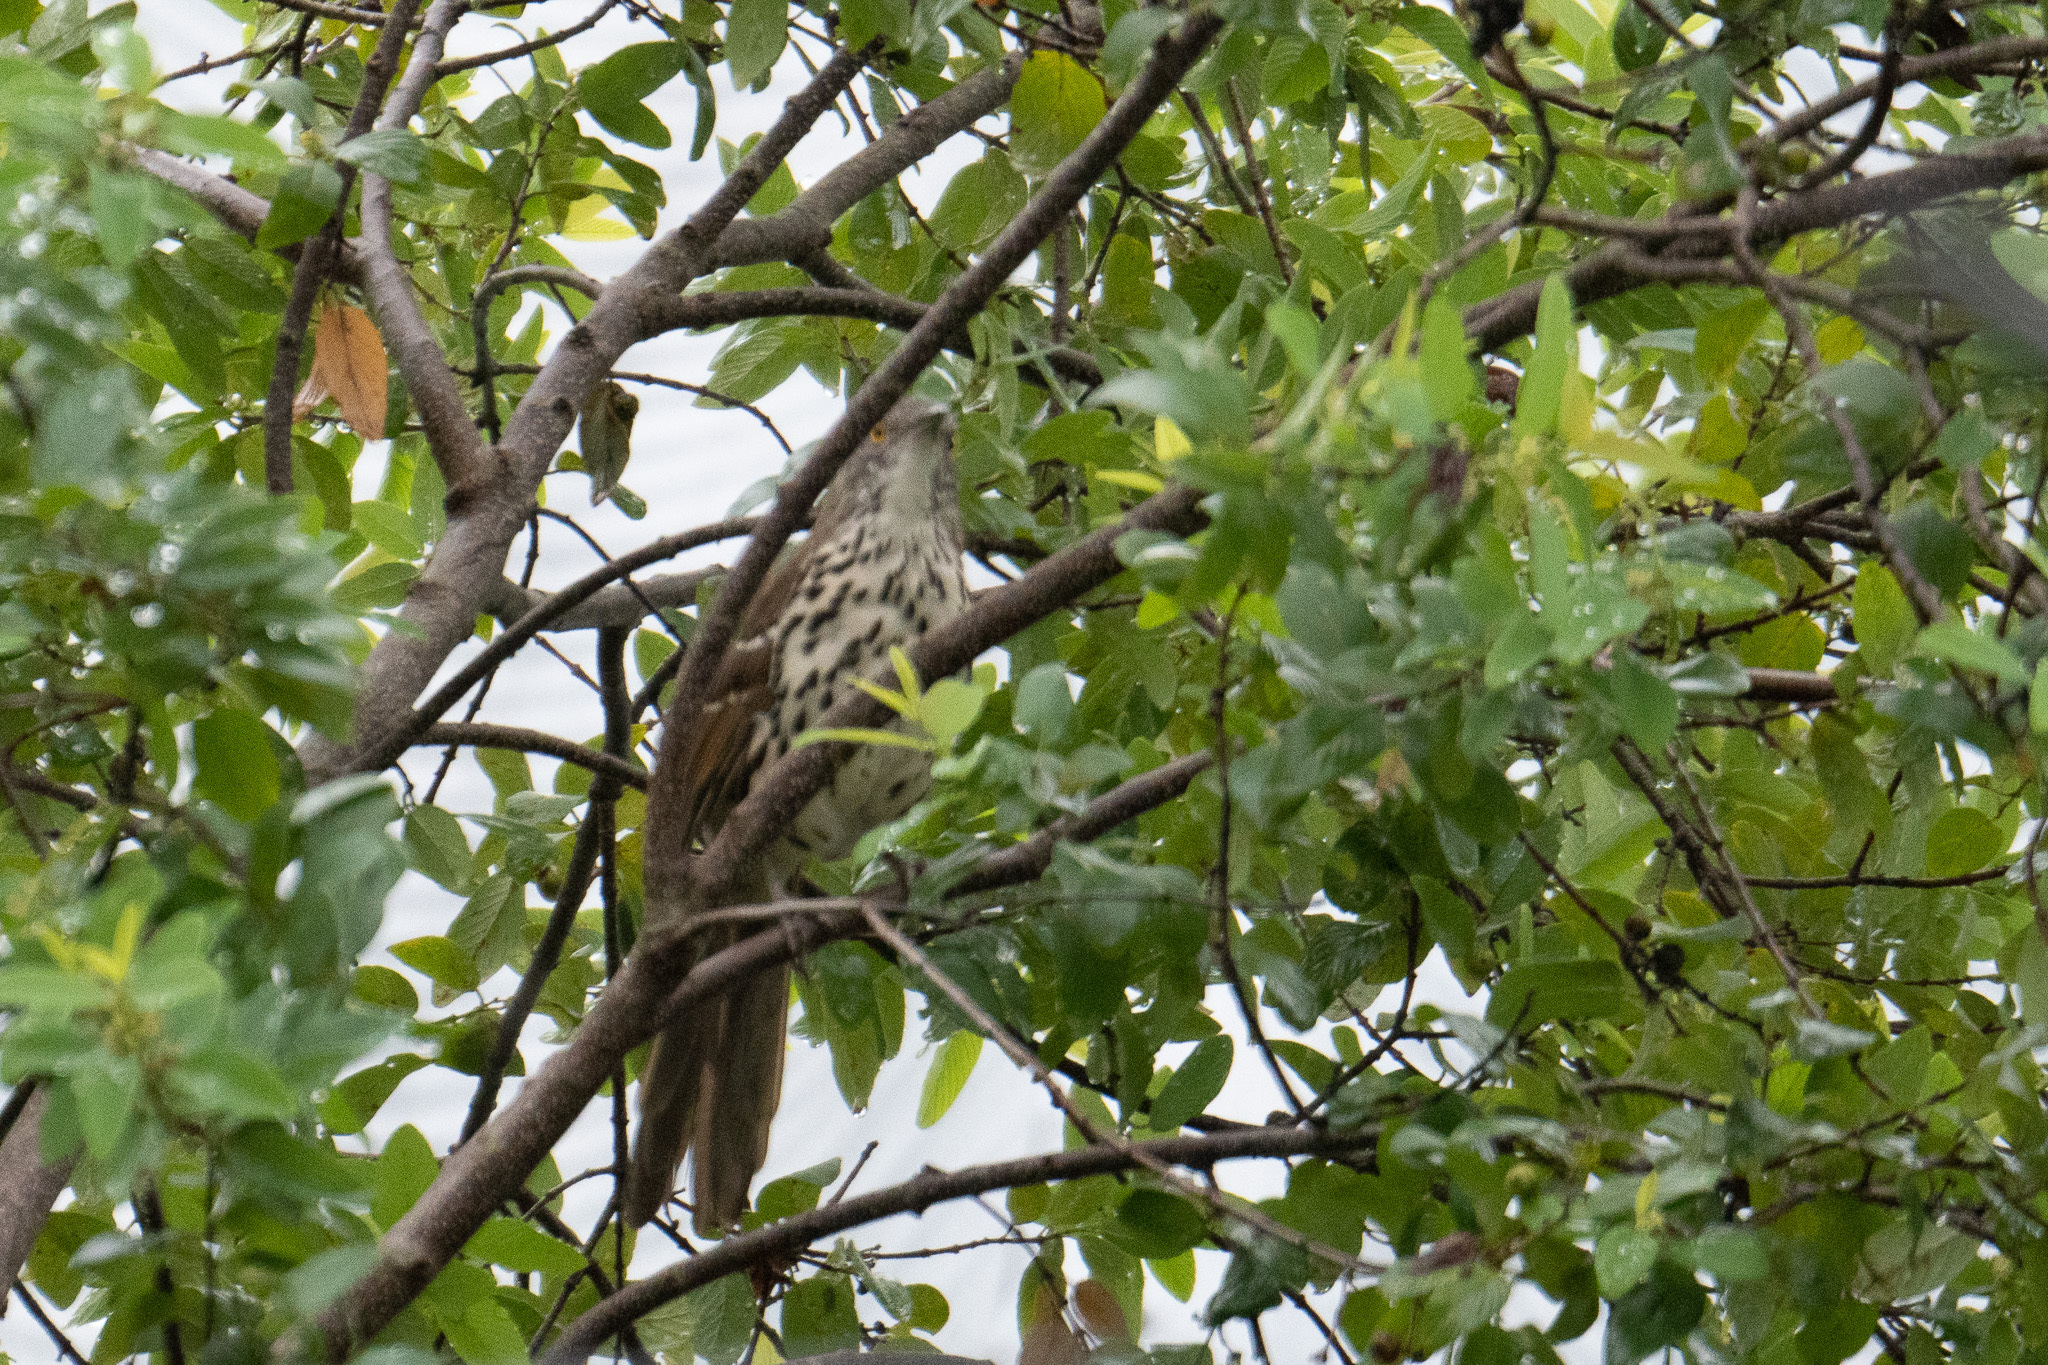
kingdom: Animalia
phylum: Chordata
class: Aves
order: Passeriformes
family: Mimidae
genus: Toxostoma
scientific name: Toxostoma longirostre
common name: Long-billed thrasher
